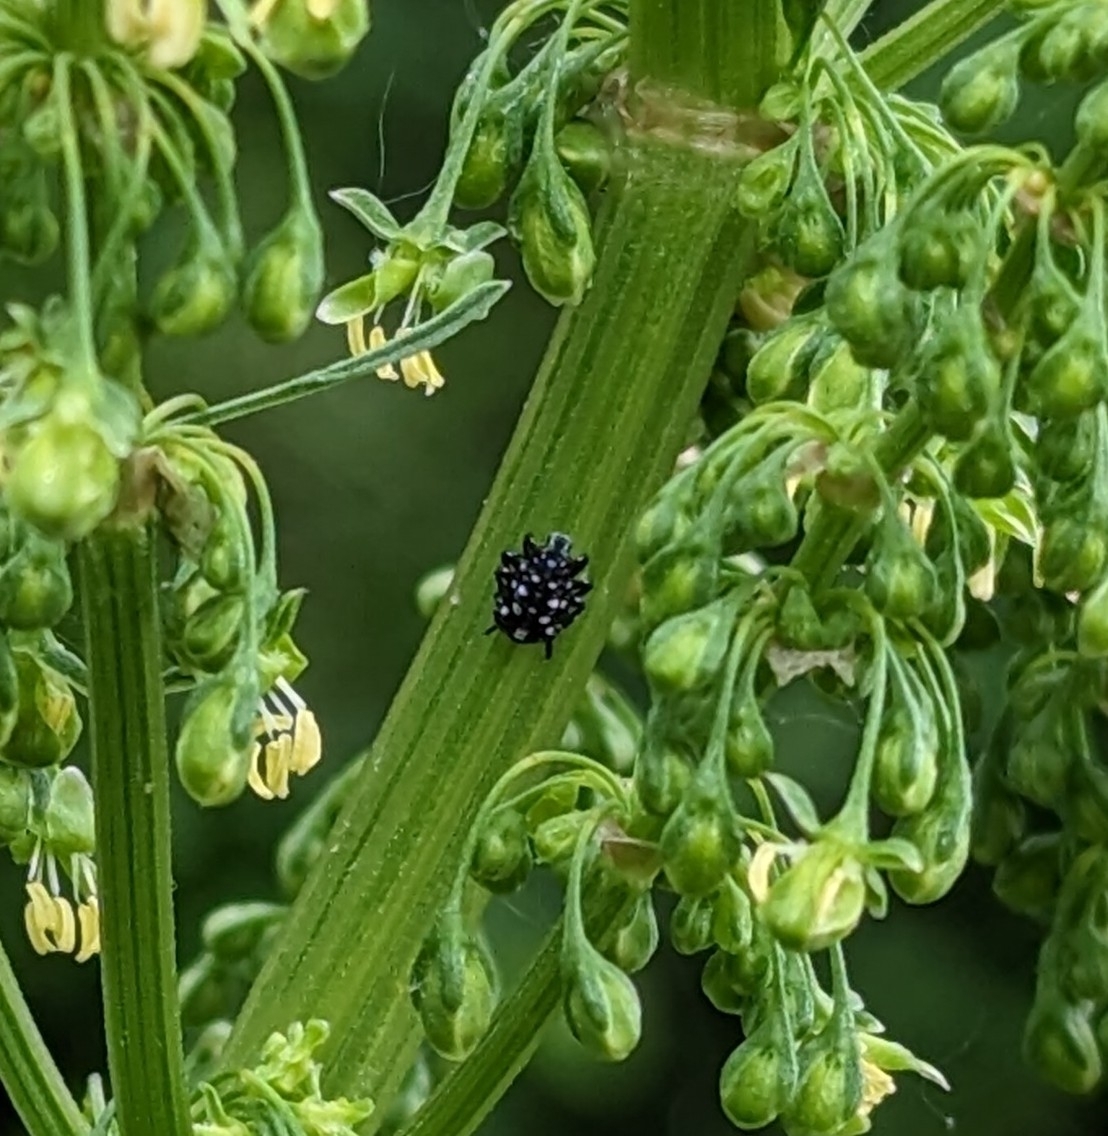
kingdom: Animalia
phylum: Arthropoda
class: Insecta
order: Hemiptera
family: Fulgoridae
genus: Lycorma
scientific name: Lycorma delicatula
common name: Spotted lanternfly
